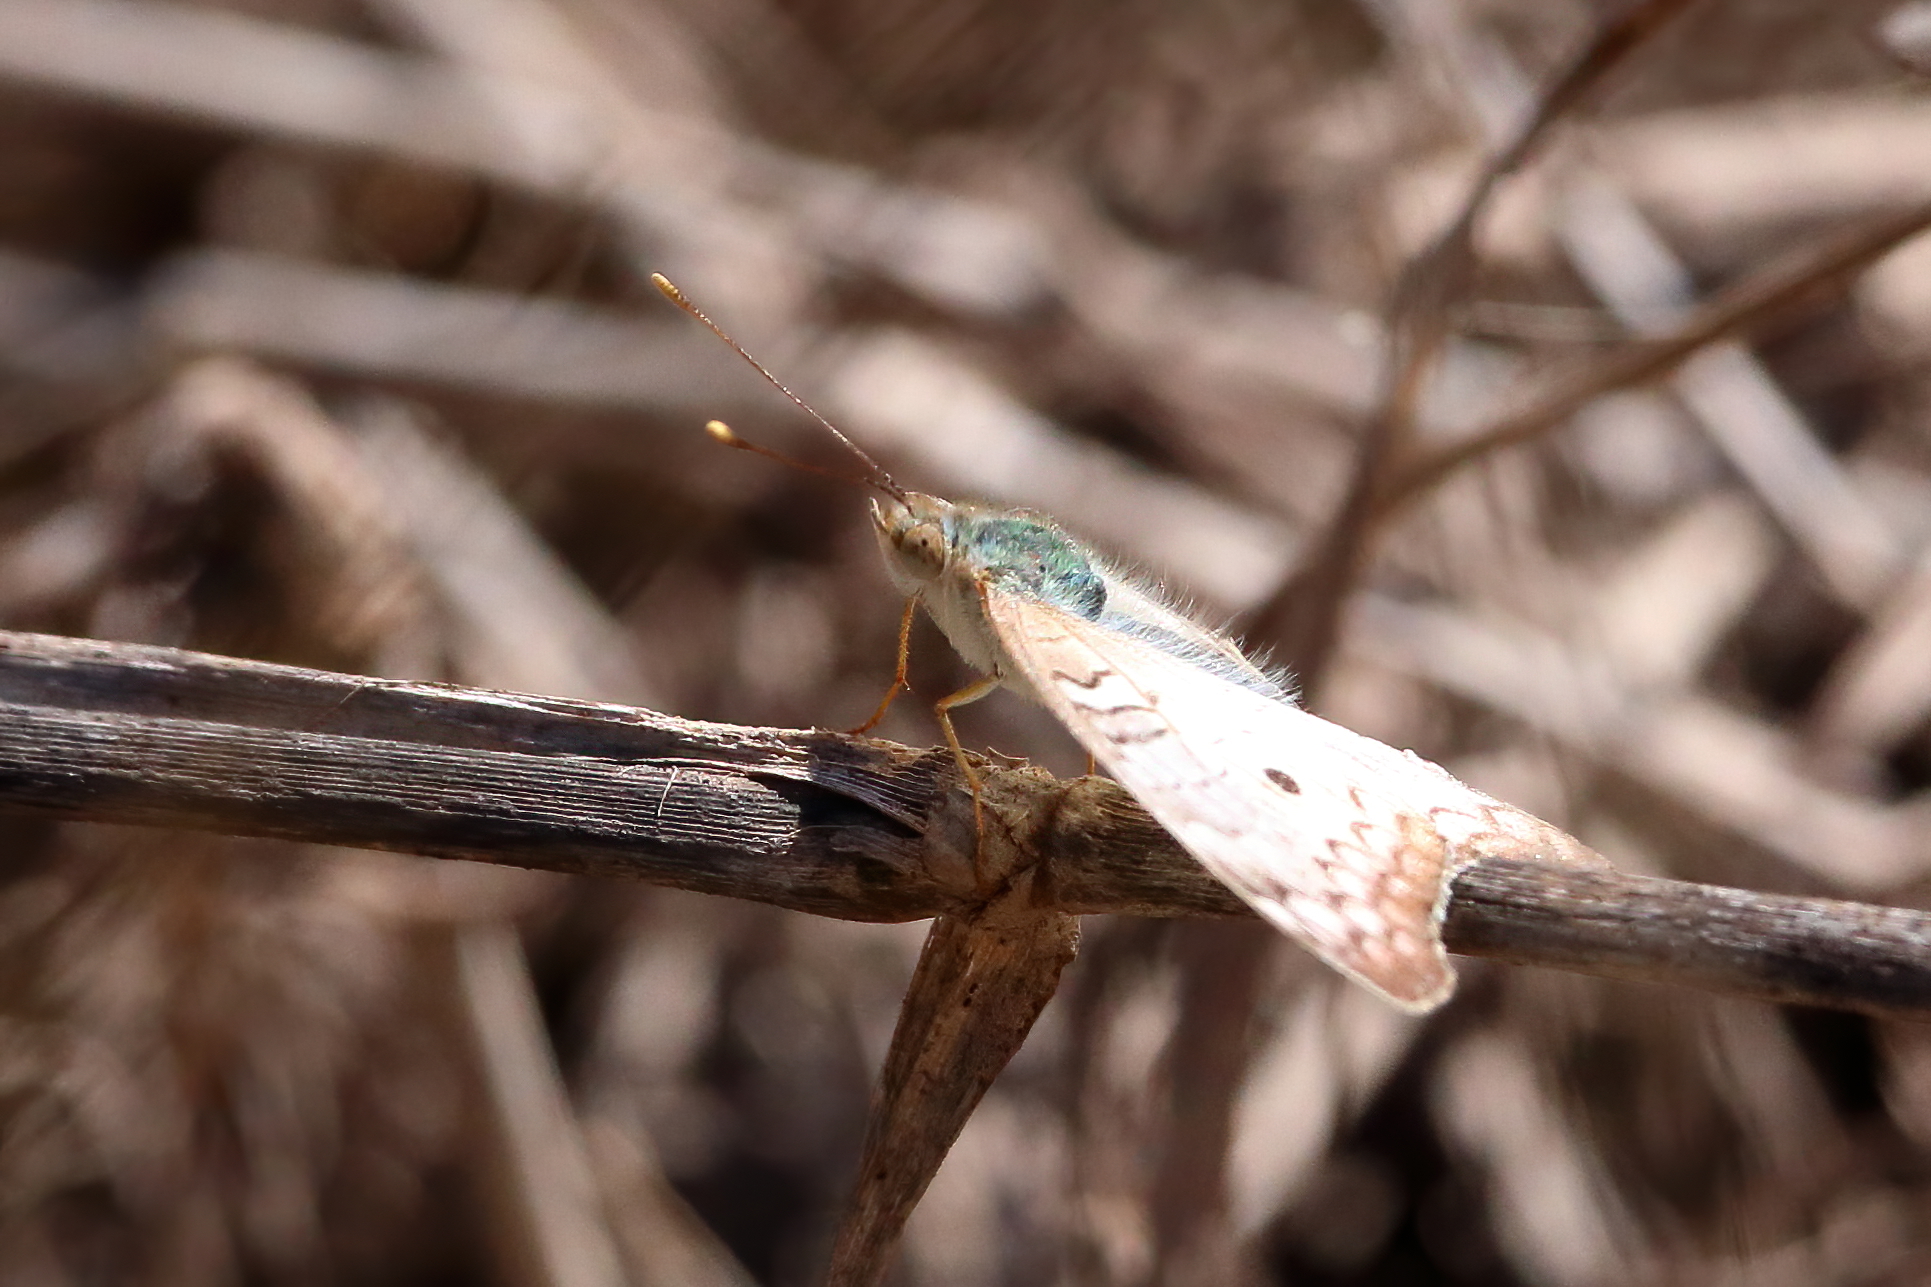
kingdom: Animalia
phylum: Arthropoda
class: Insecta
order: Lepidoptera
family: Nymphalidae
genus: Anartia
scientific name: Anartia jatrophae
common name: White peacock
